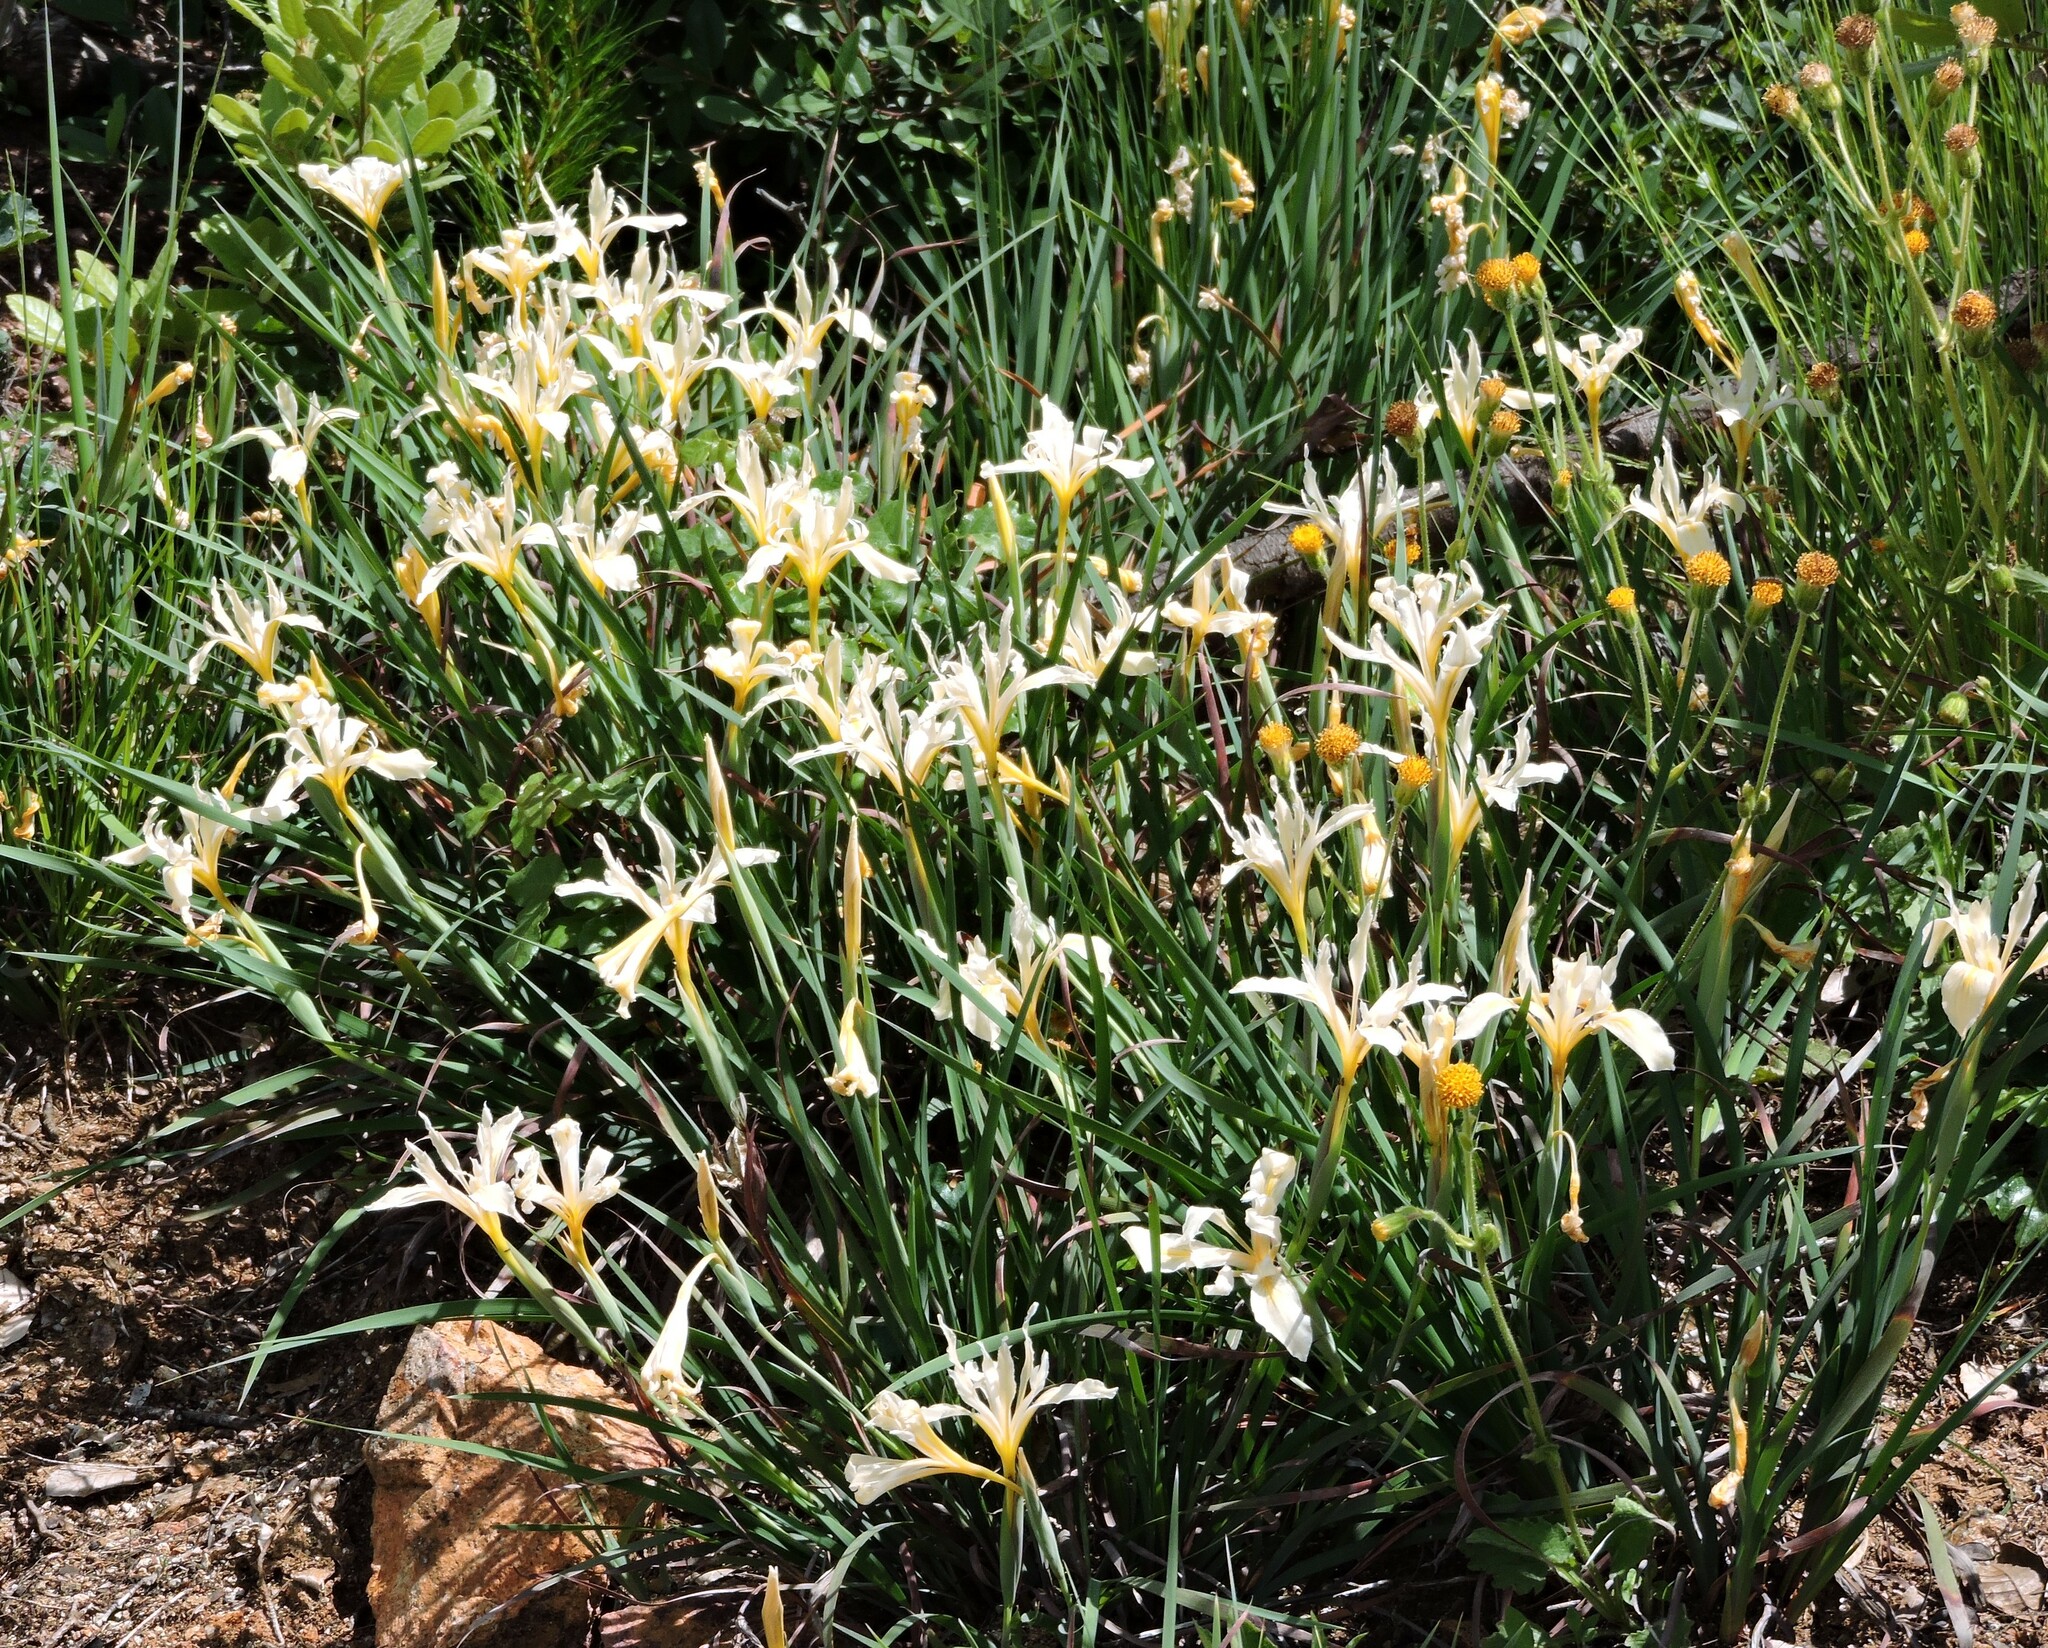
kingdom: Plantae
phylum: Tracheophyta
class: Liliopsida
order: Asparagales
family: Iridaceae
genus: Iris
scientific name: Iris fernaldii
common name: Fernald's iris
